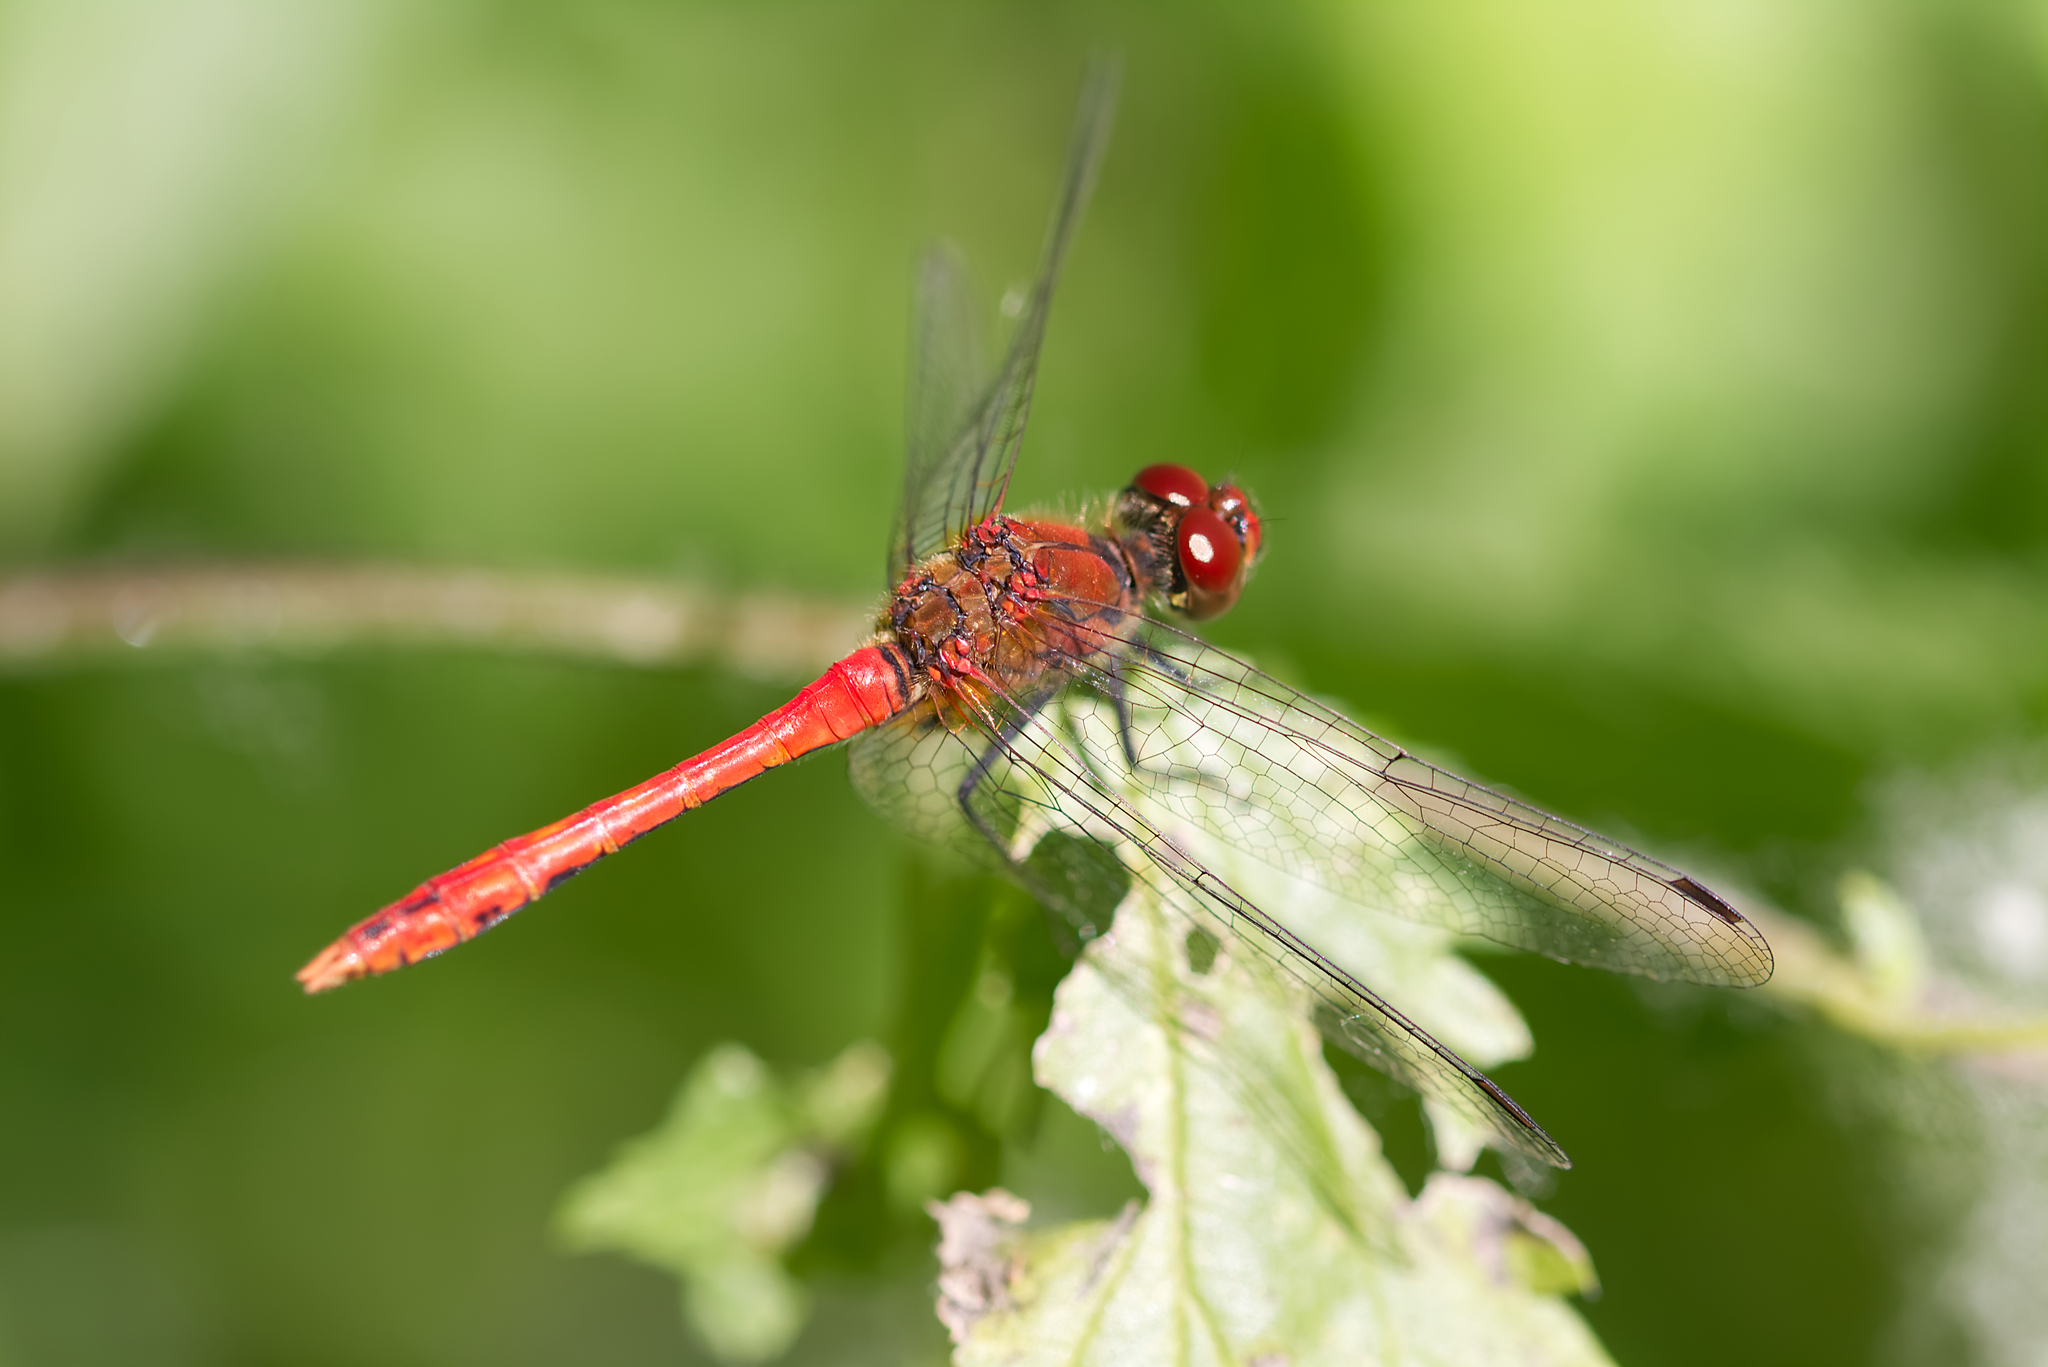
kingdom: Animalia
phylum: Arthropoda
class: Insecta
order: Odonata
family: Libellulidae
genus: Sympetrum
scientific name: Sympetrum sanguineum
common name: Ruddy darter
